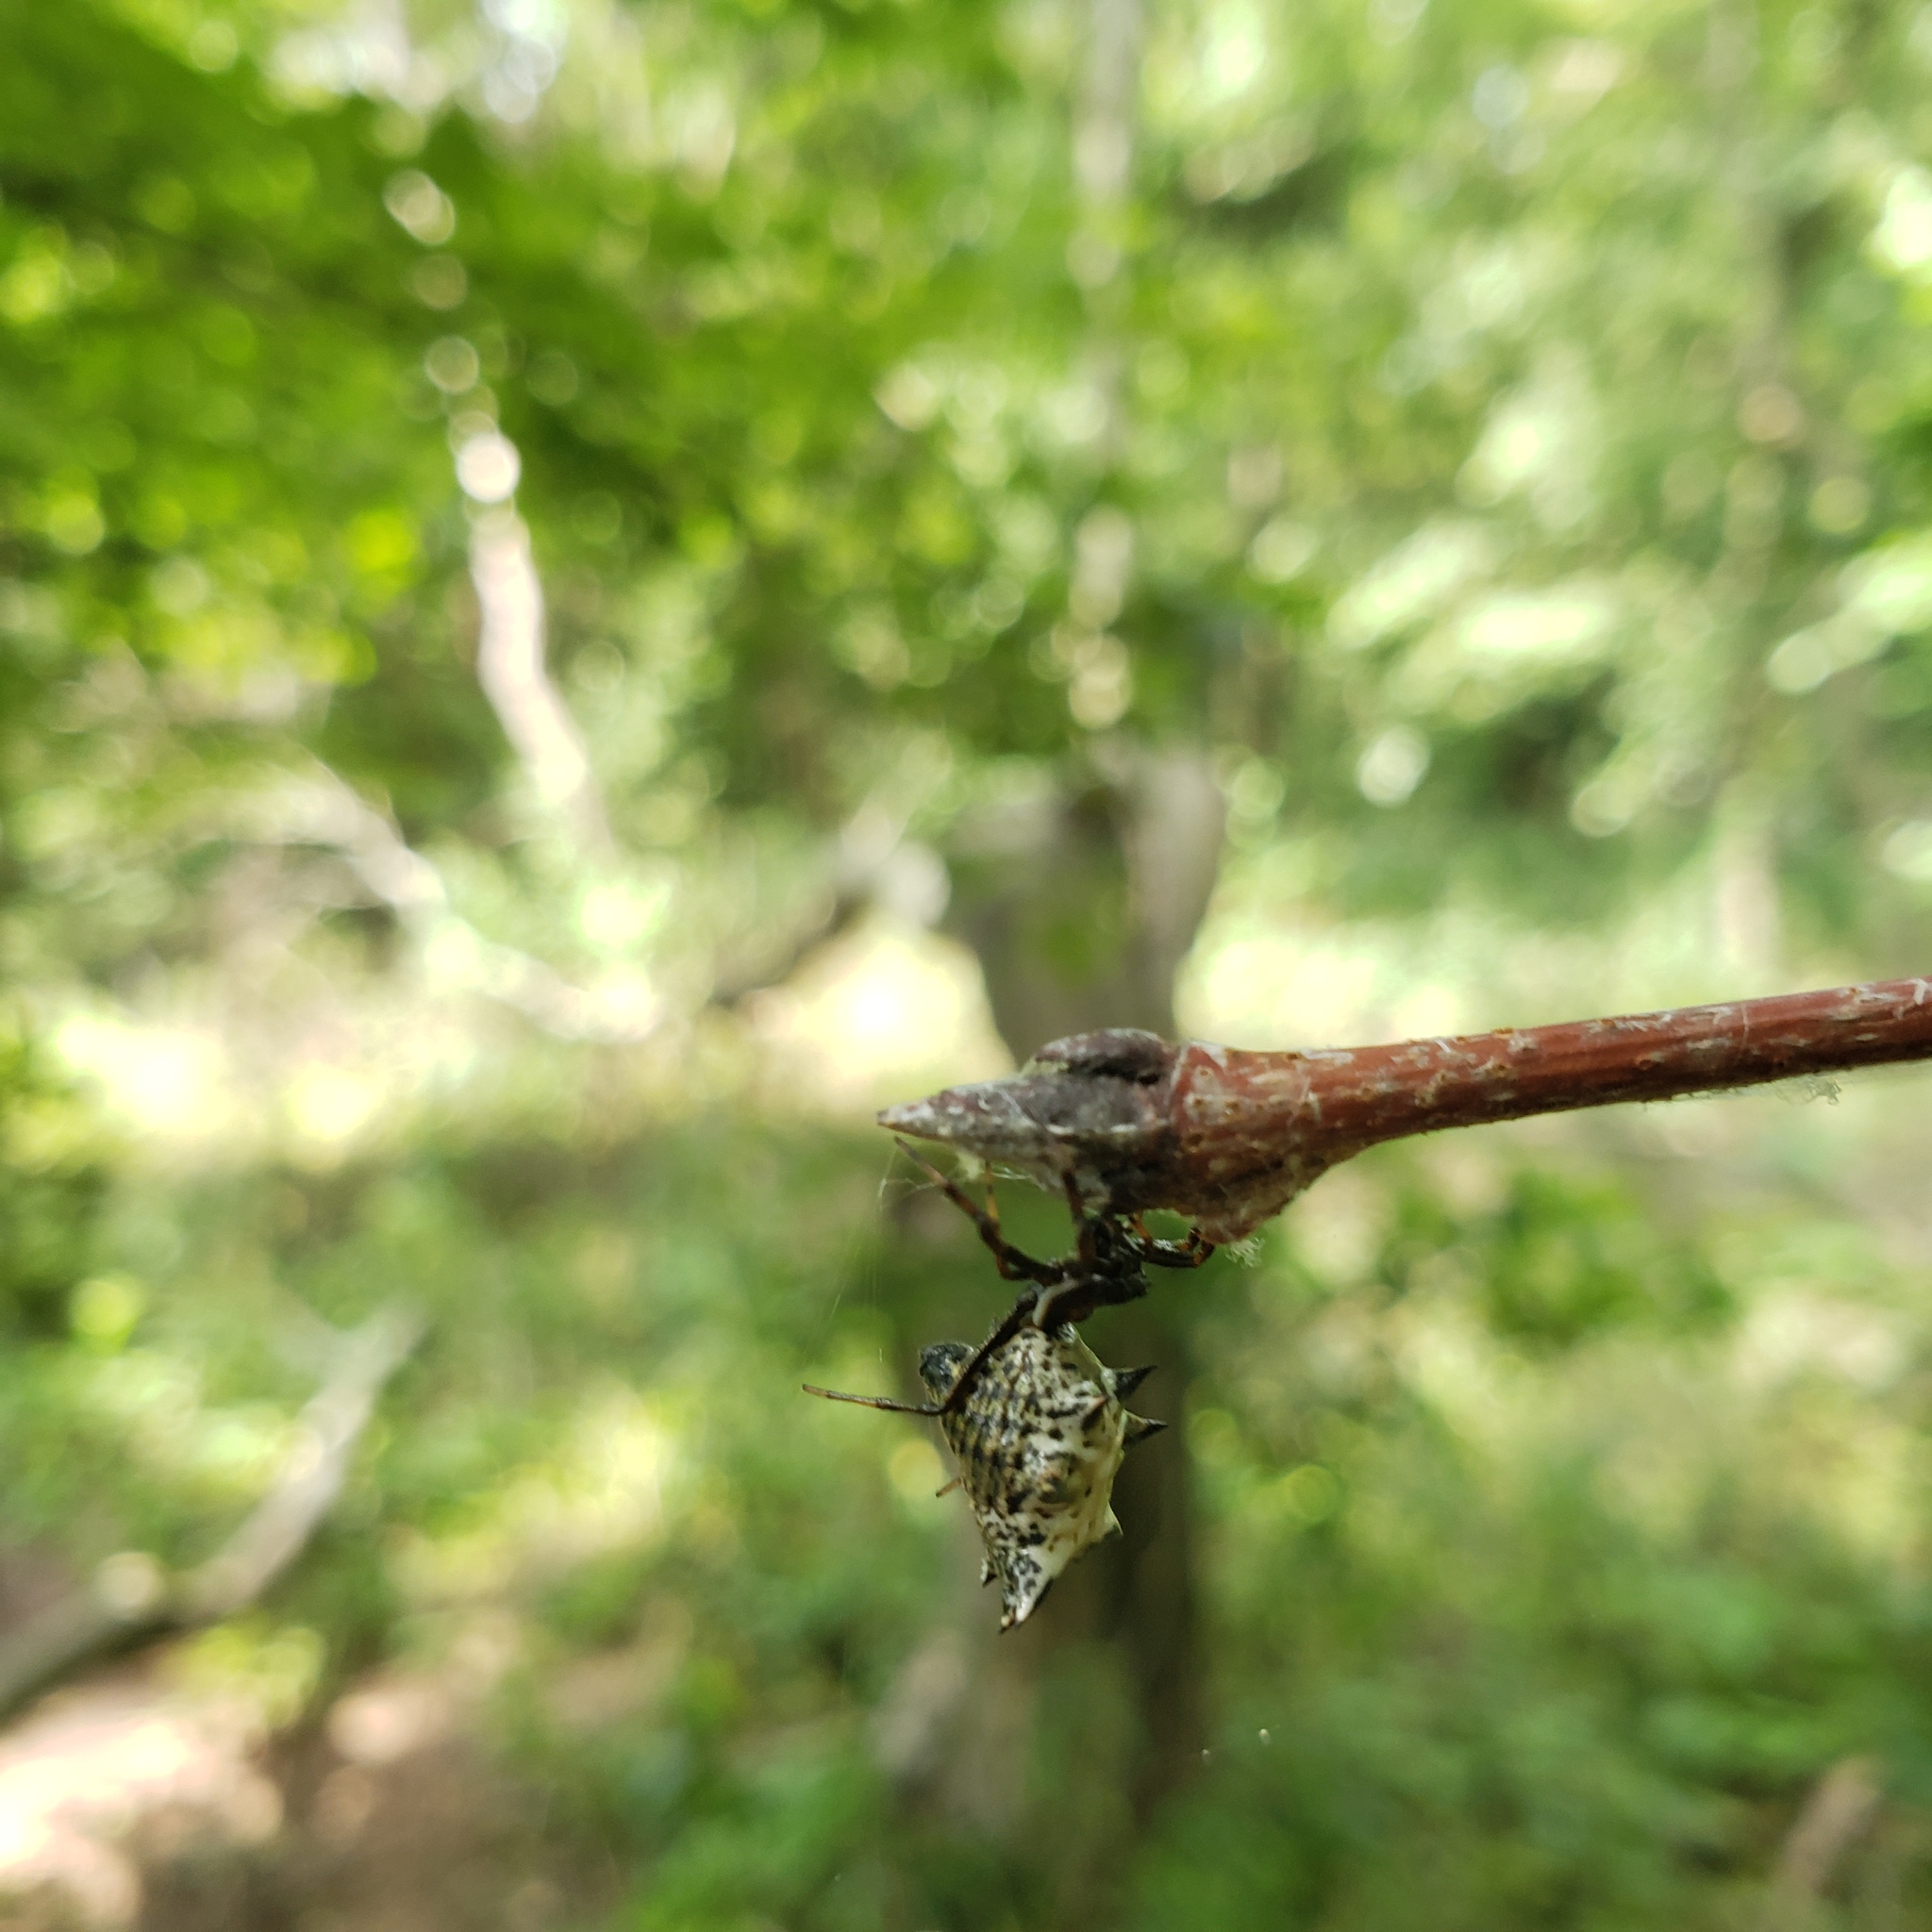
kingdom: Animalia
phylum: Arthropoda
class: Arachnida
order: Araneae
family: Araneidae
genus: Micrathena
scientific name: Micrathena gracilis
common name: Orb weavers
